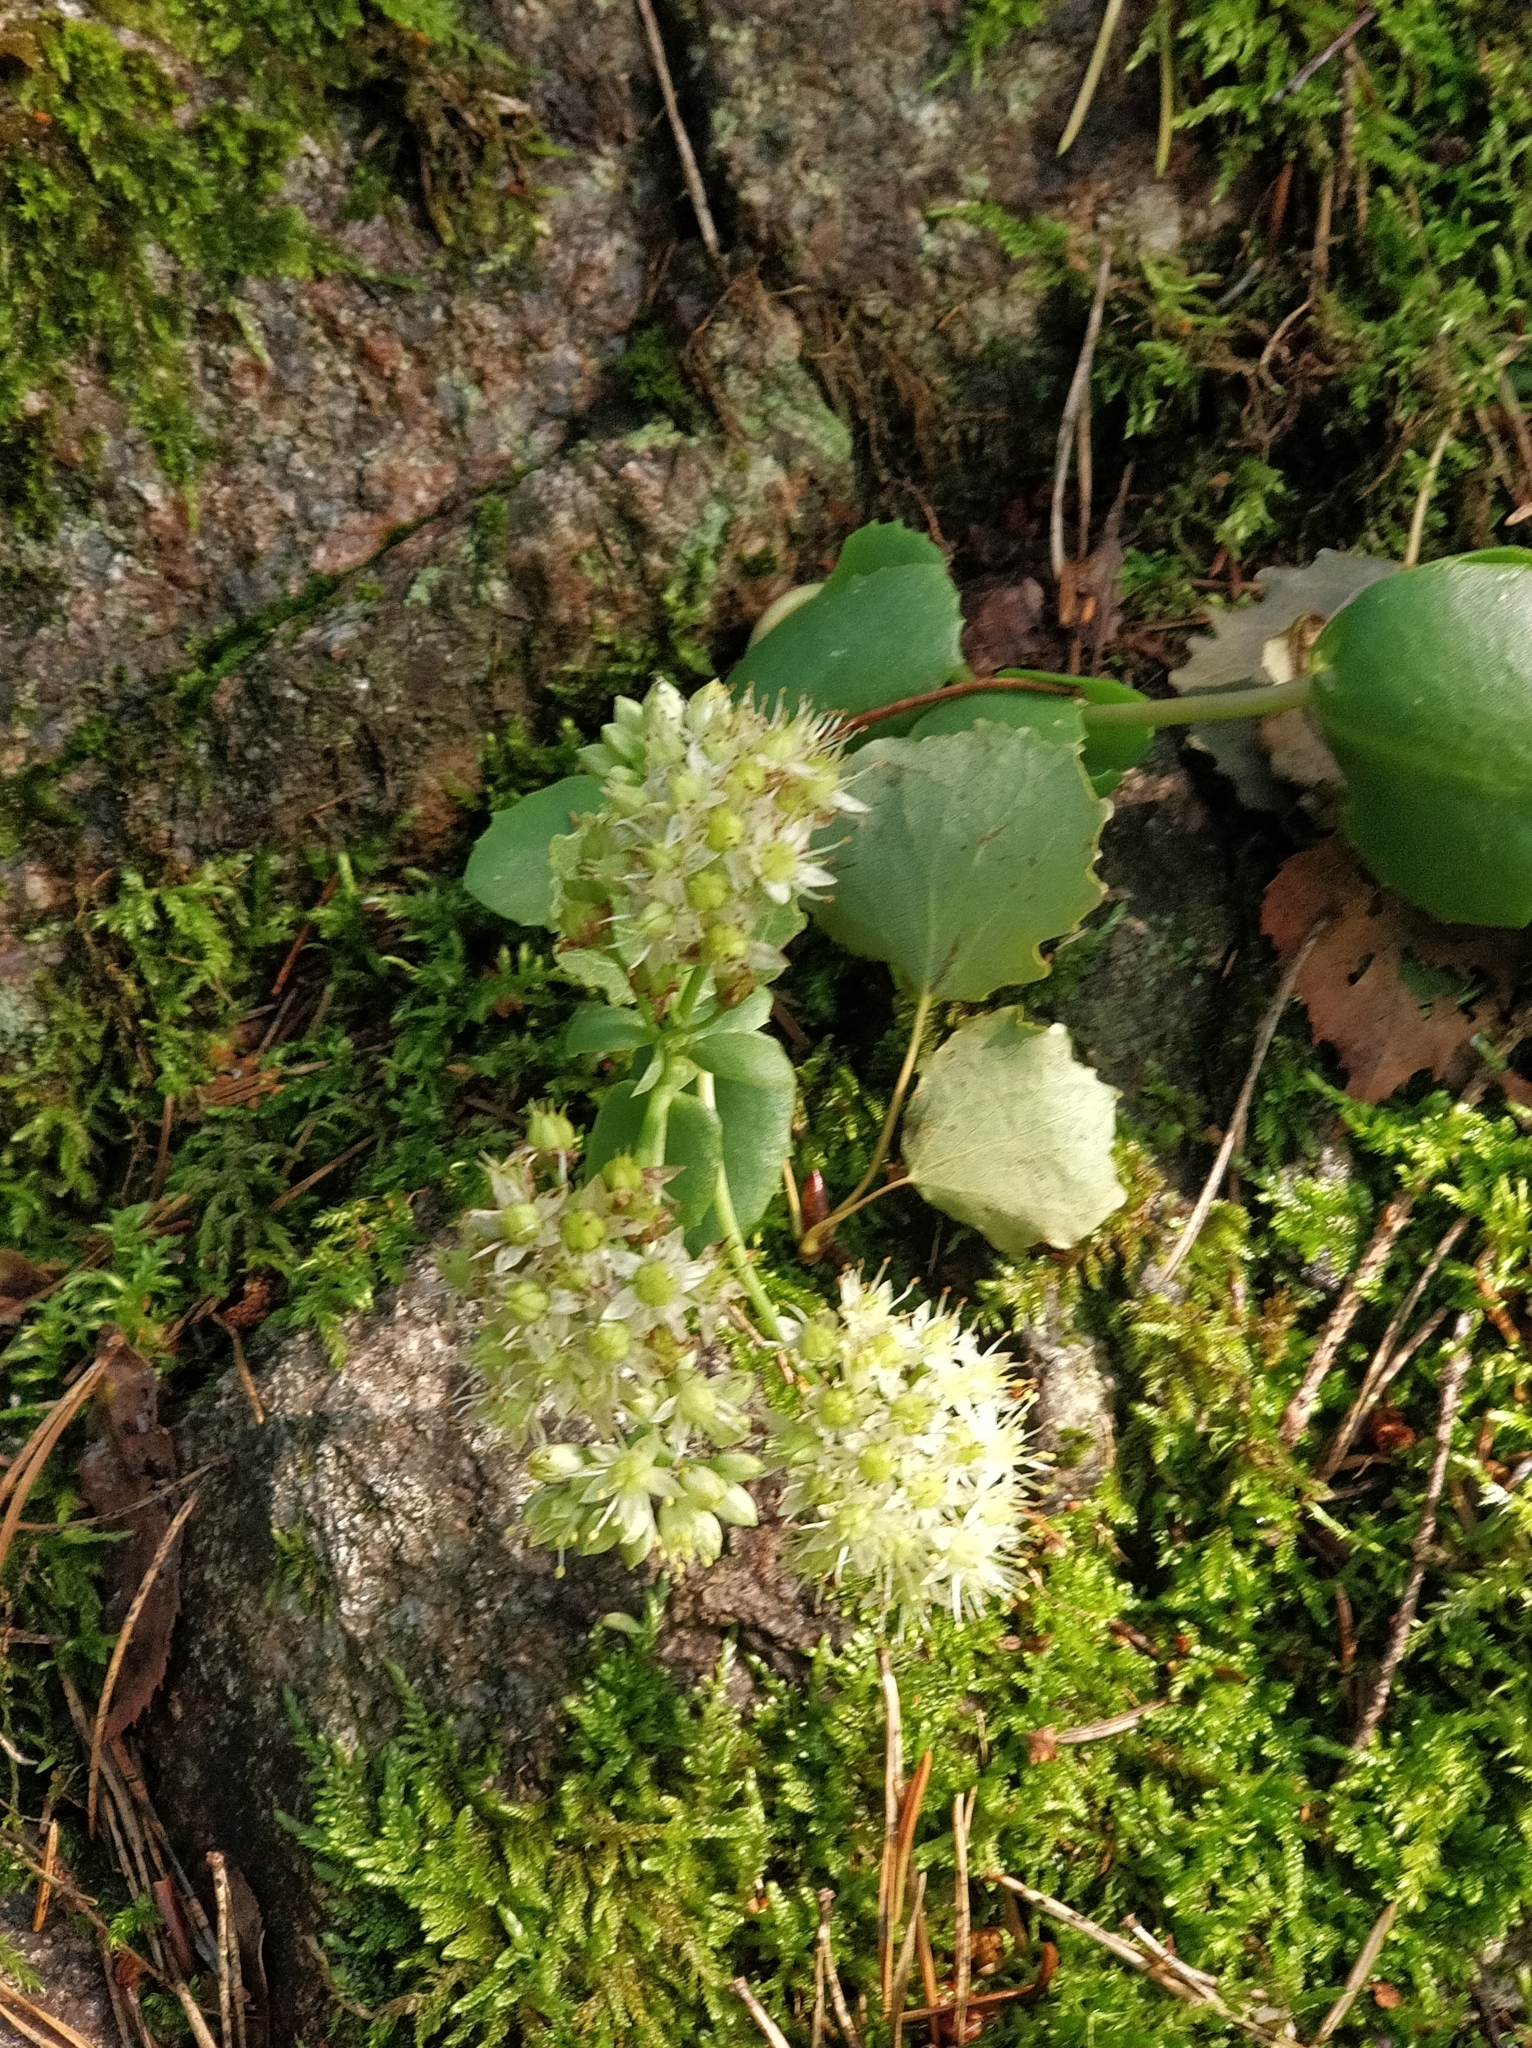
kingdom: Plantae
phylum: Tracheophyta
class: Magnoliopsida
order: Saxifragales
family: Crassulaceae
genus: Hylotelephium
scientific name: Hylotelephium maximum
